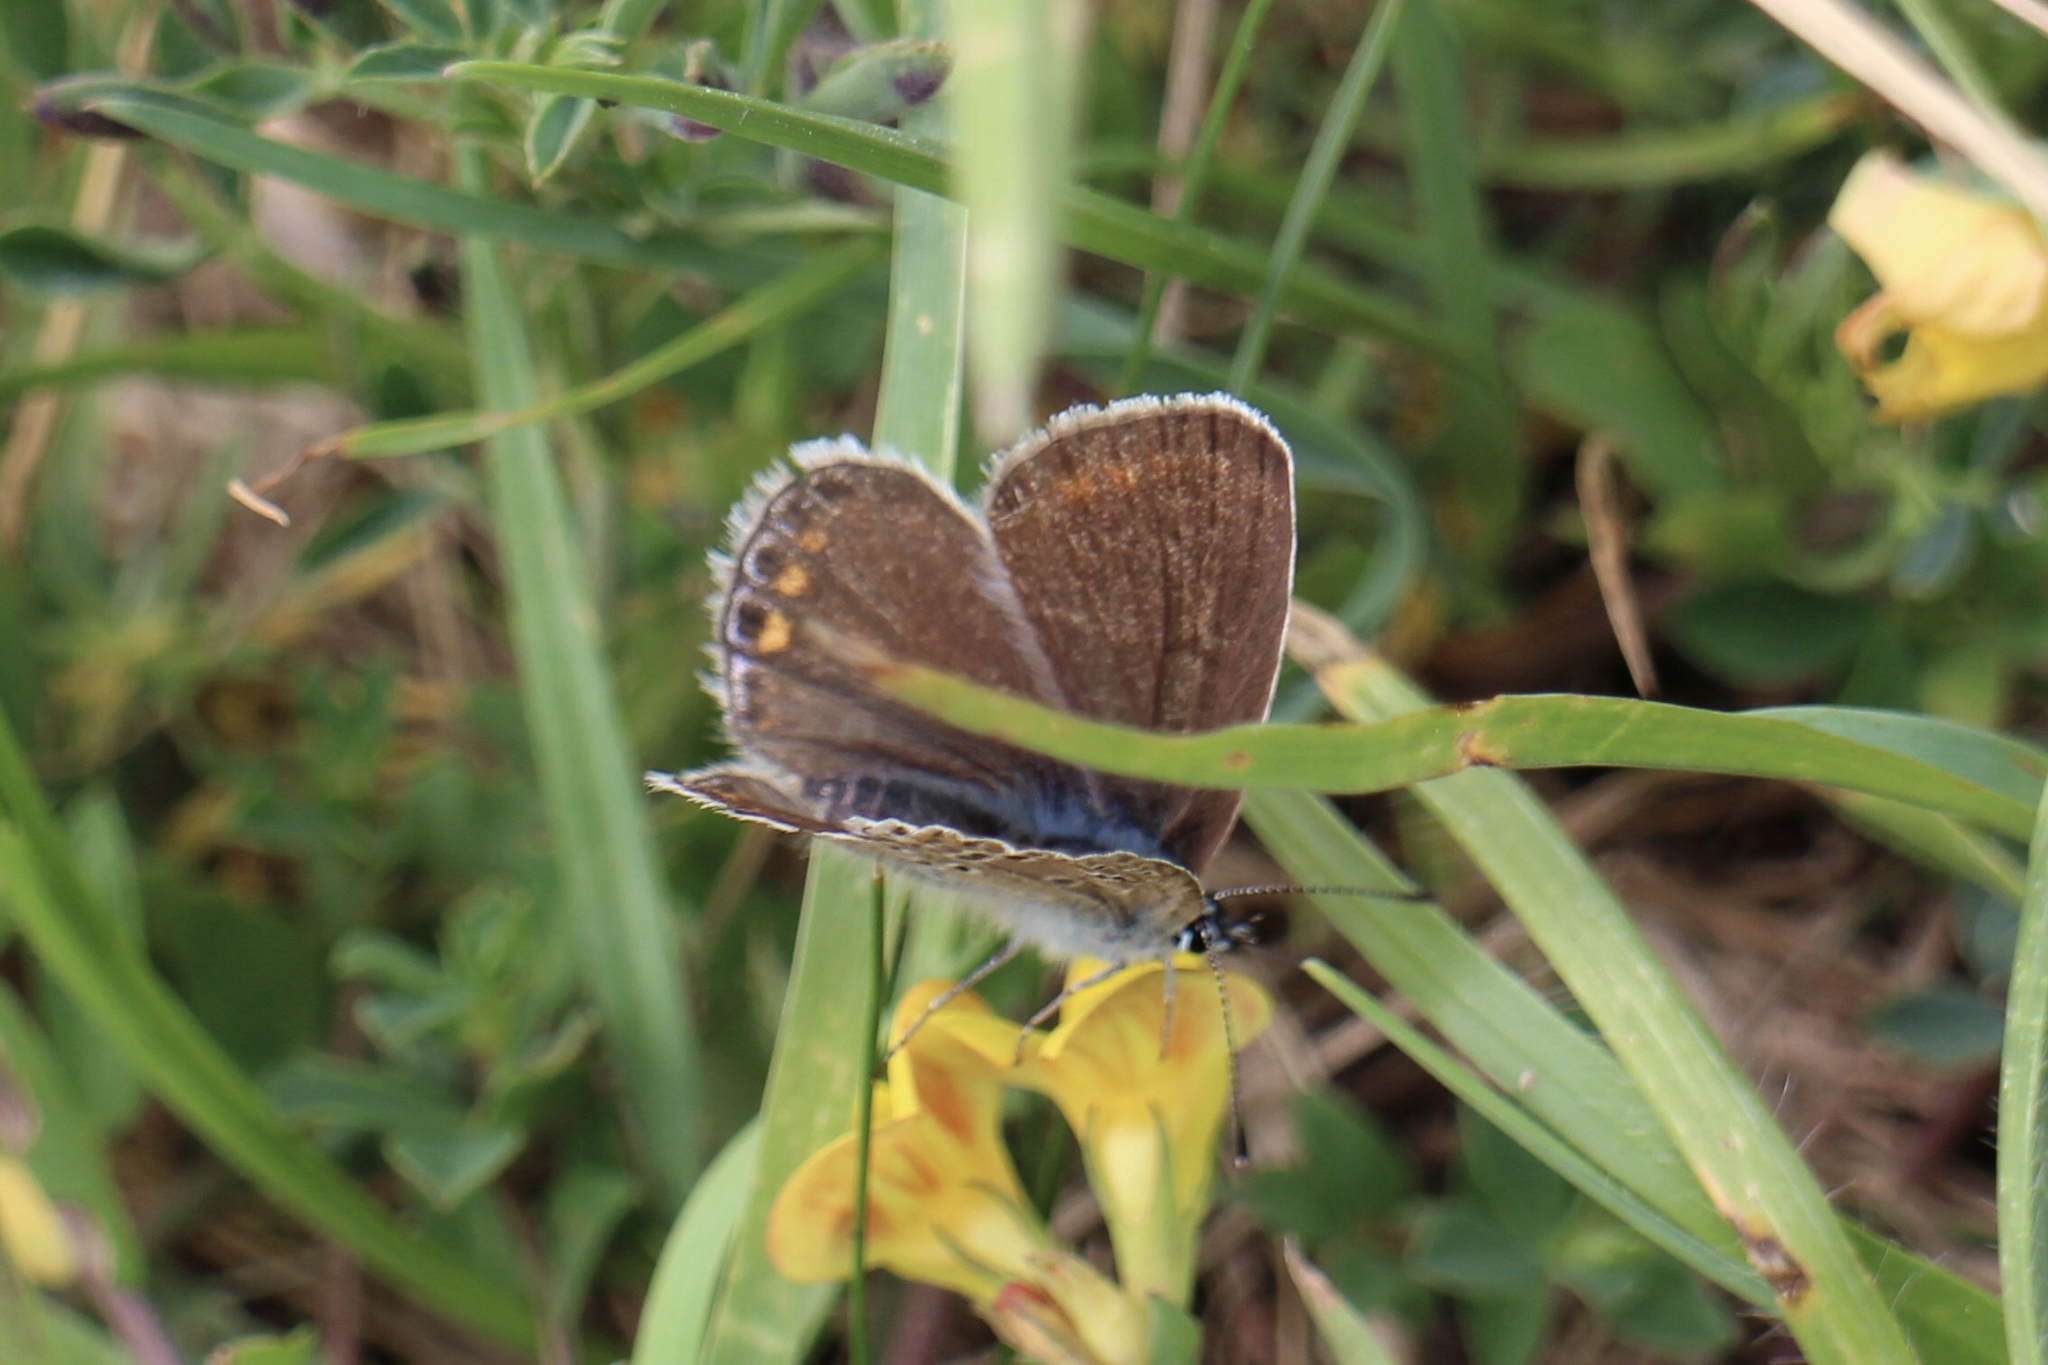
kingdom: Animalia
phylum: Arthropoda
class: Insecta
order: Lepidoptera
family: Lycaenidae
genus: Polyommatus
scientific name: Polyommatus icarus
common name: Common blue
